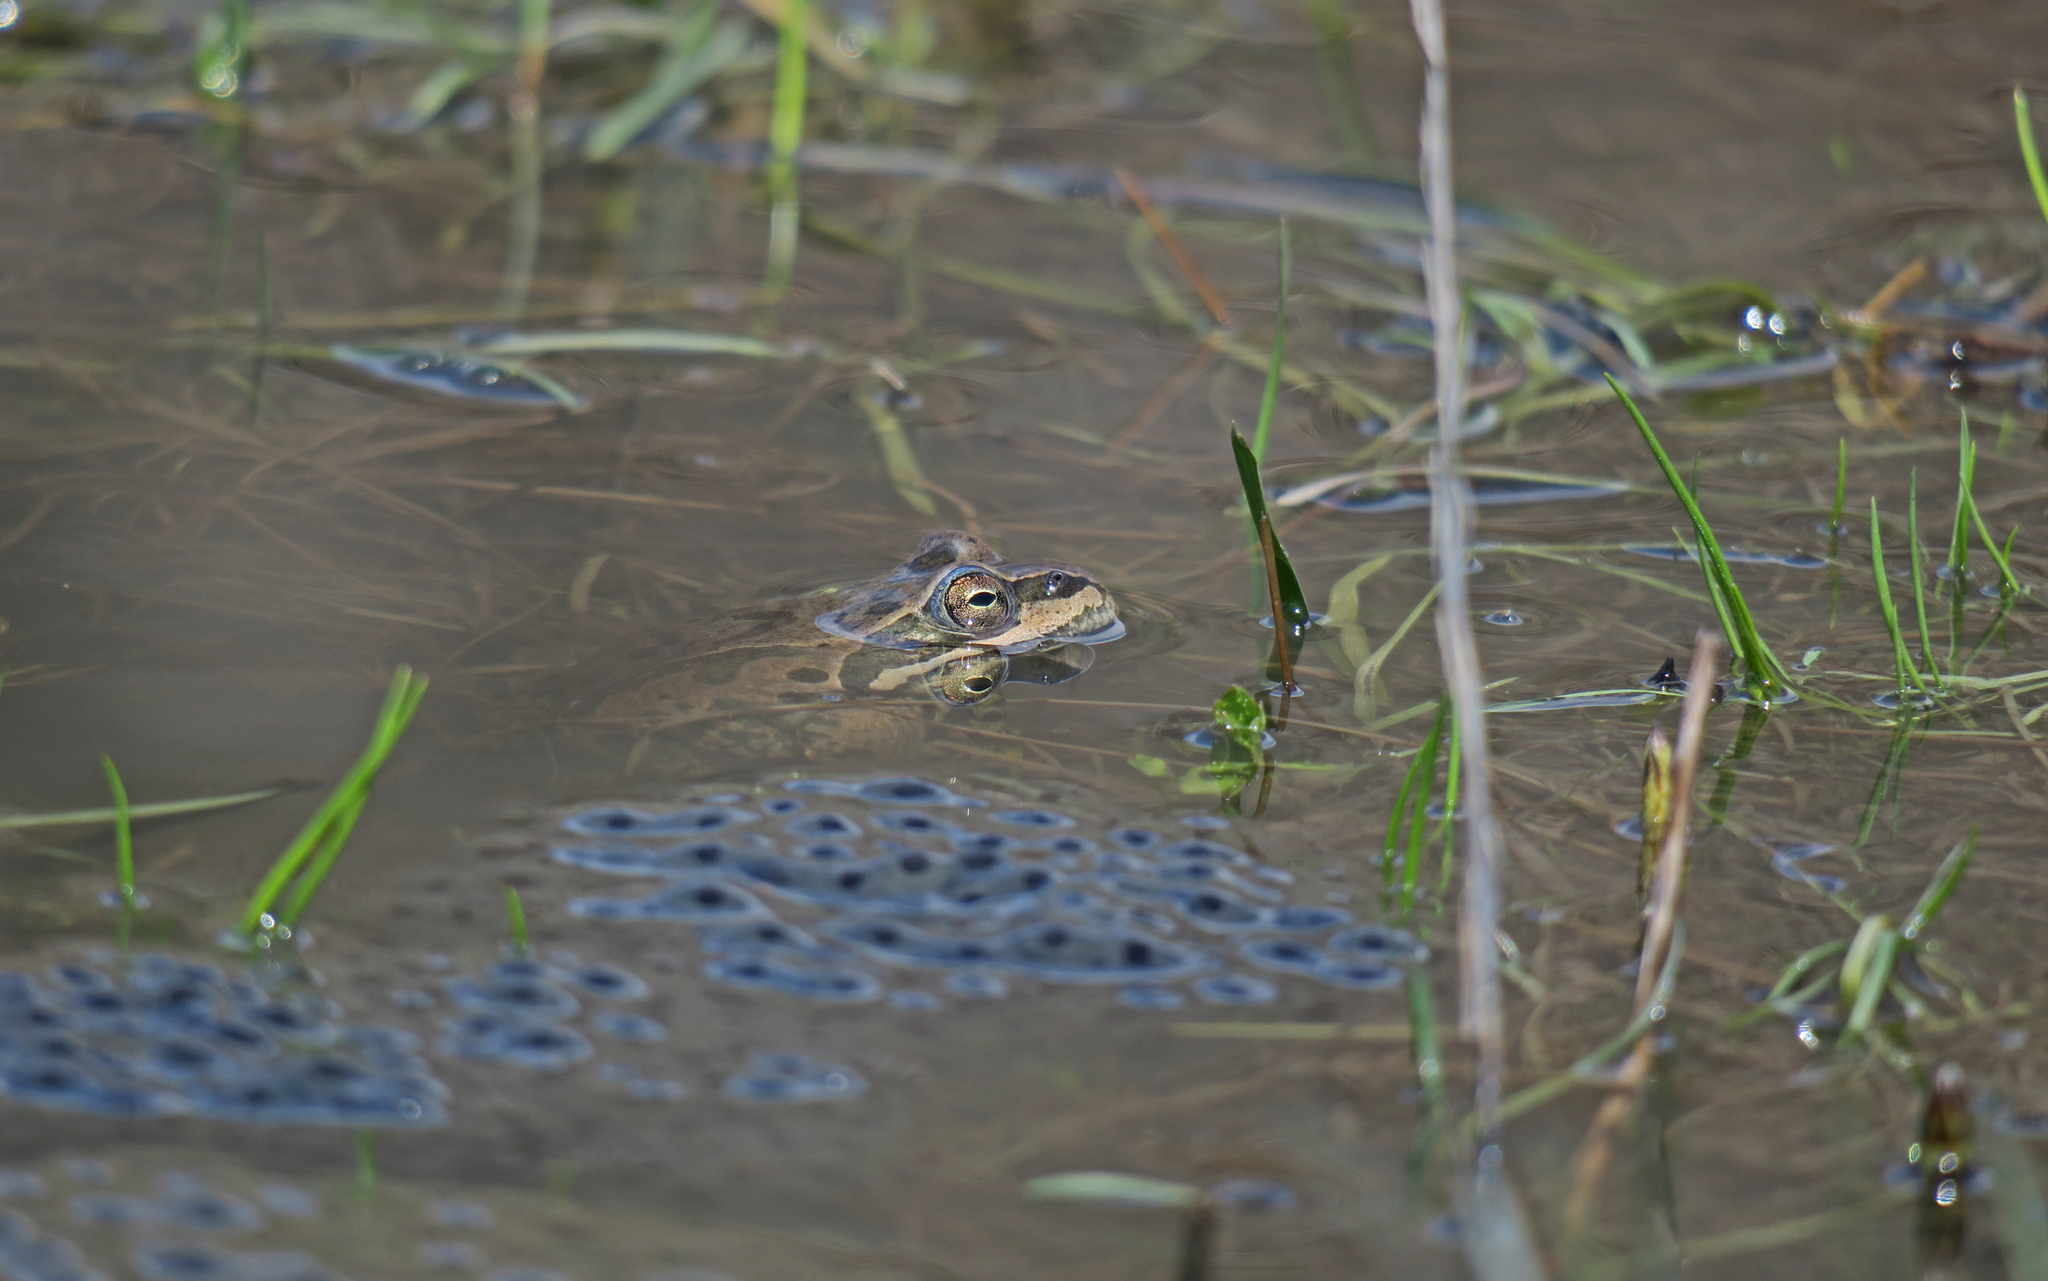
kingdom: Animalia
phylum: Chordata
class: Amphibia
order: Anura
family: Ranidae
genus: Rana
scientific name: Rana macrocnemis
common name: Banded frog
